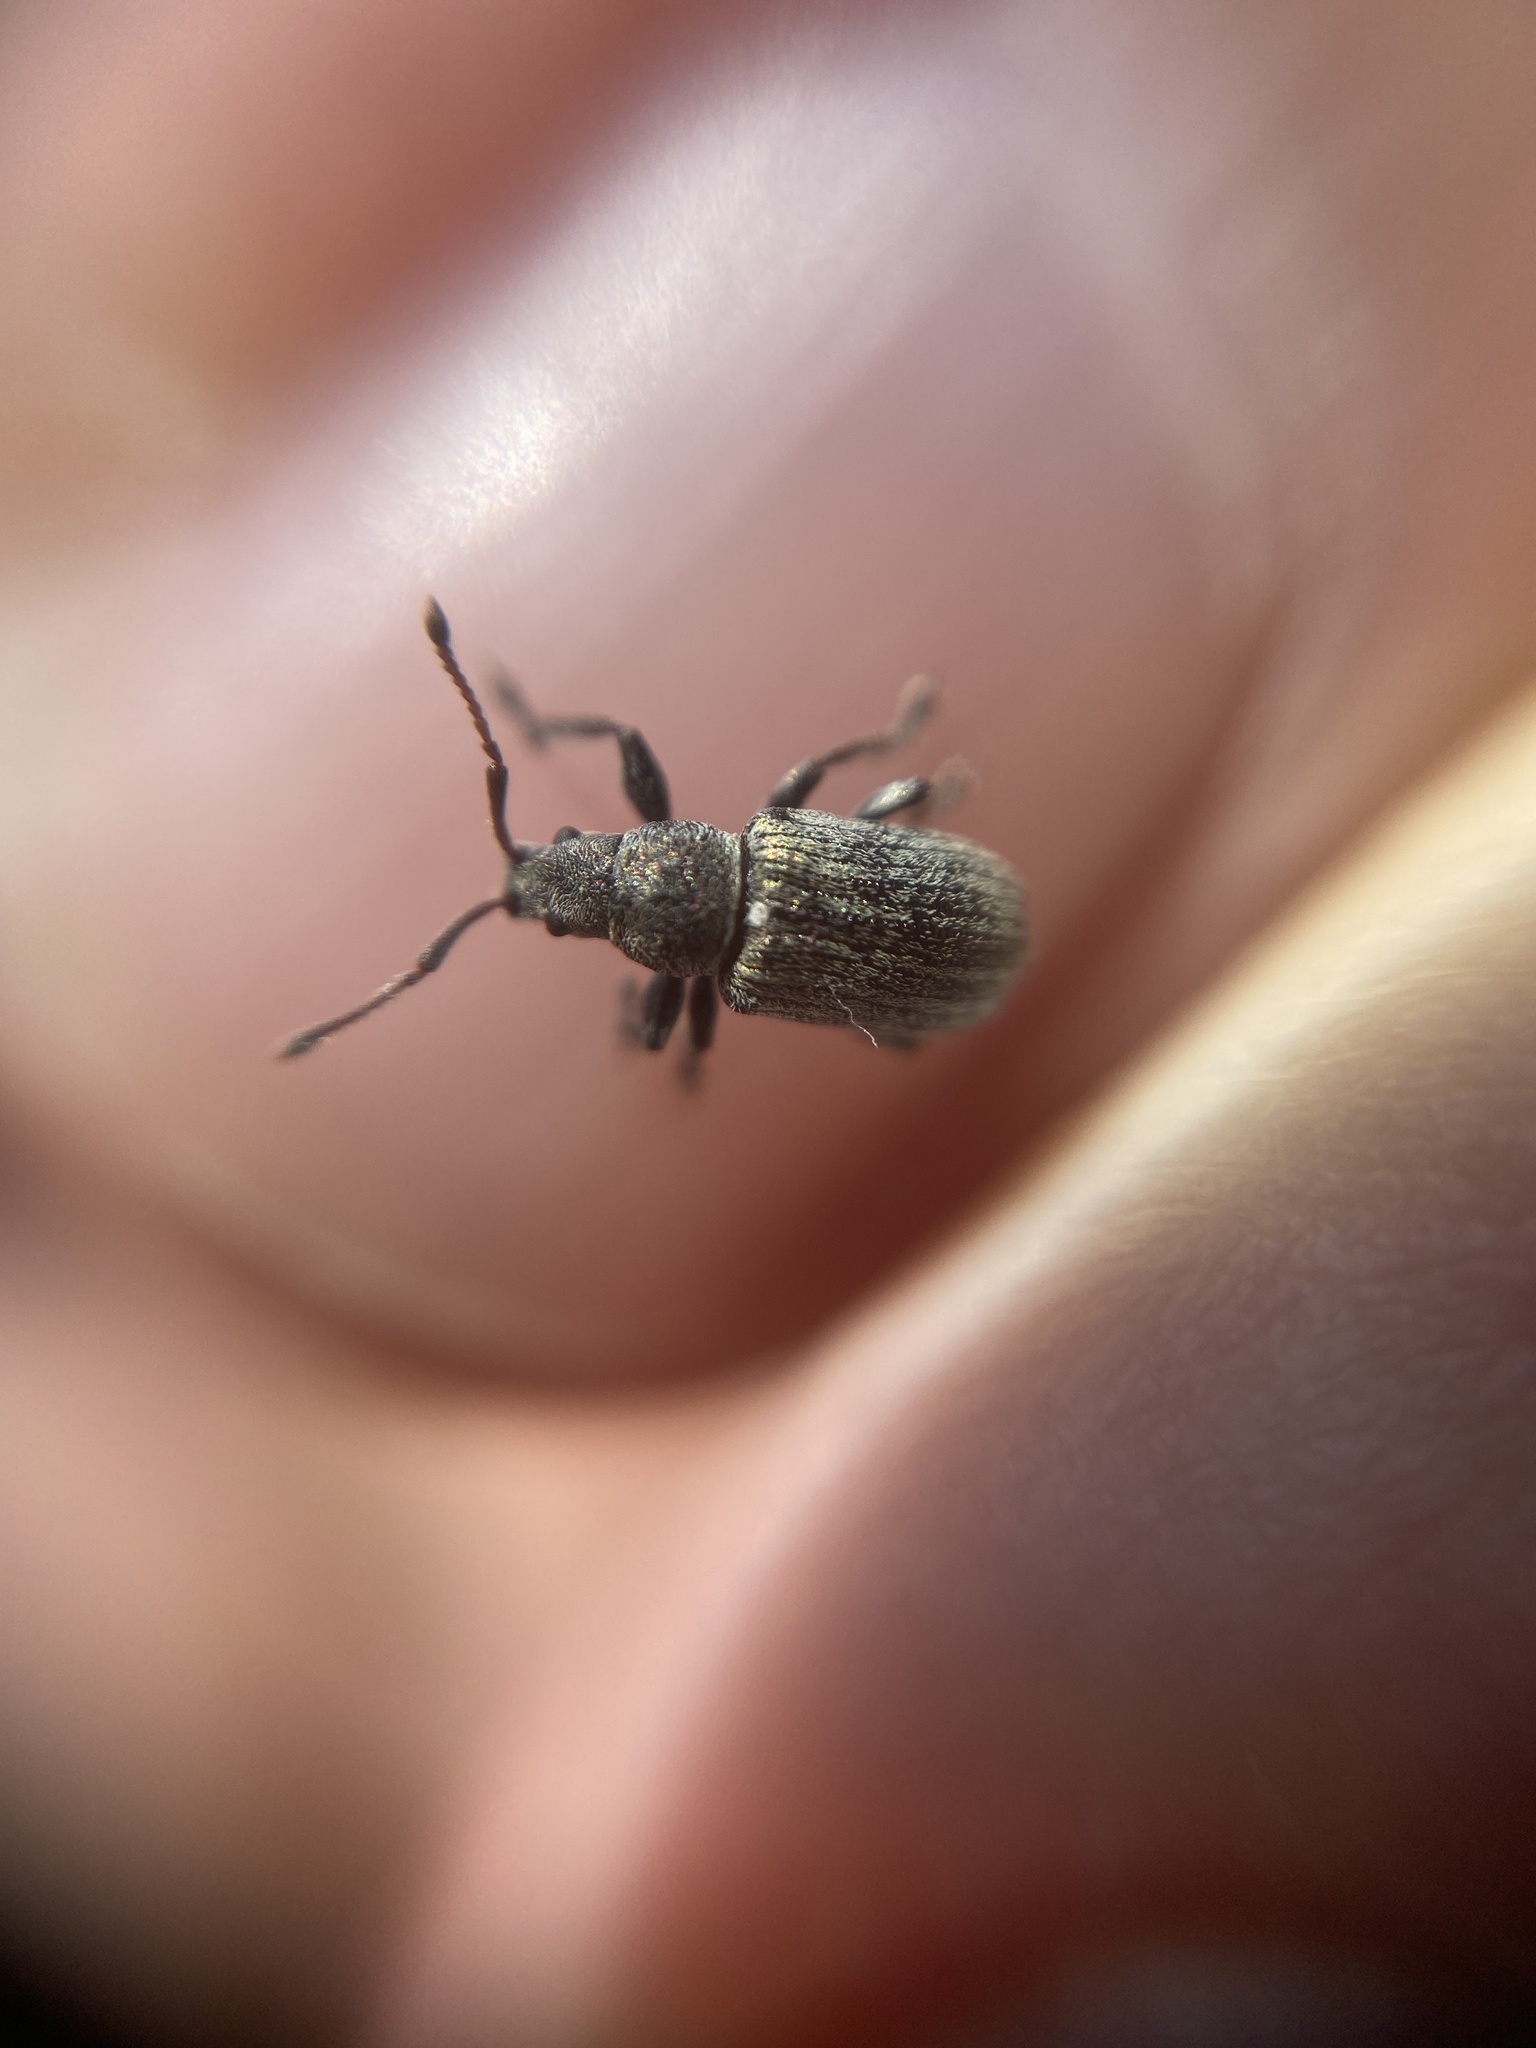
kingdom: Animalia
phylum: Arthropoda
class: Insecta
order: Coleoptera
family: Curculionidae
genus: Phyllobius
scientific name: Phyllobius pyri
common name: Common leaf weevil
